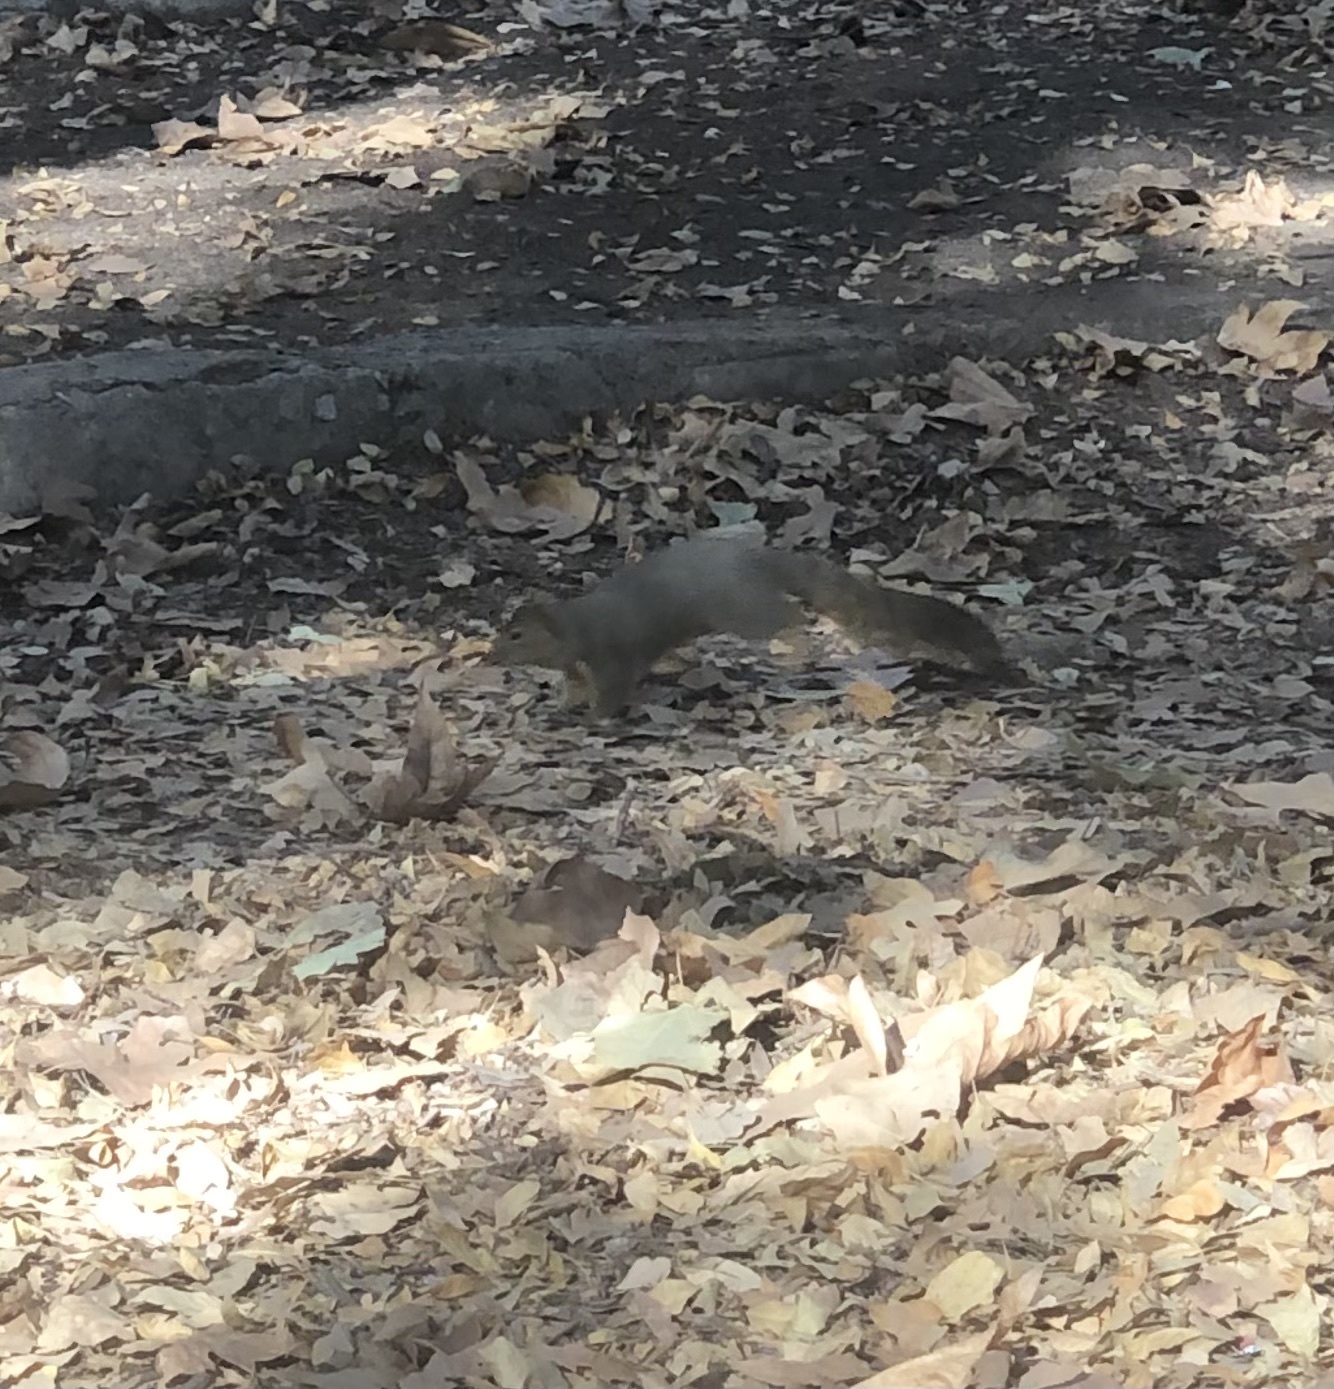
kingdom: Animalia
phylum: Chordata
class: Mammalia
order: Rodentia
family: Sciuridae
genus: Sciurus
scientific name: Sciurus niger
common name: Fox squirrel
